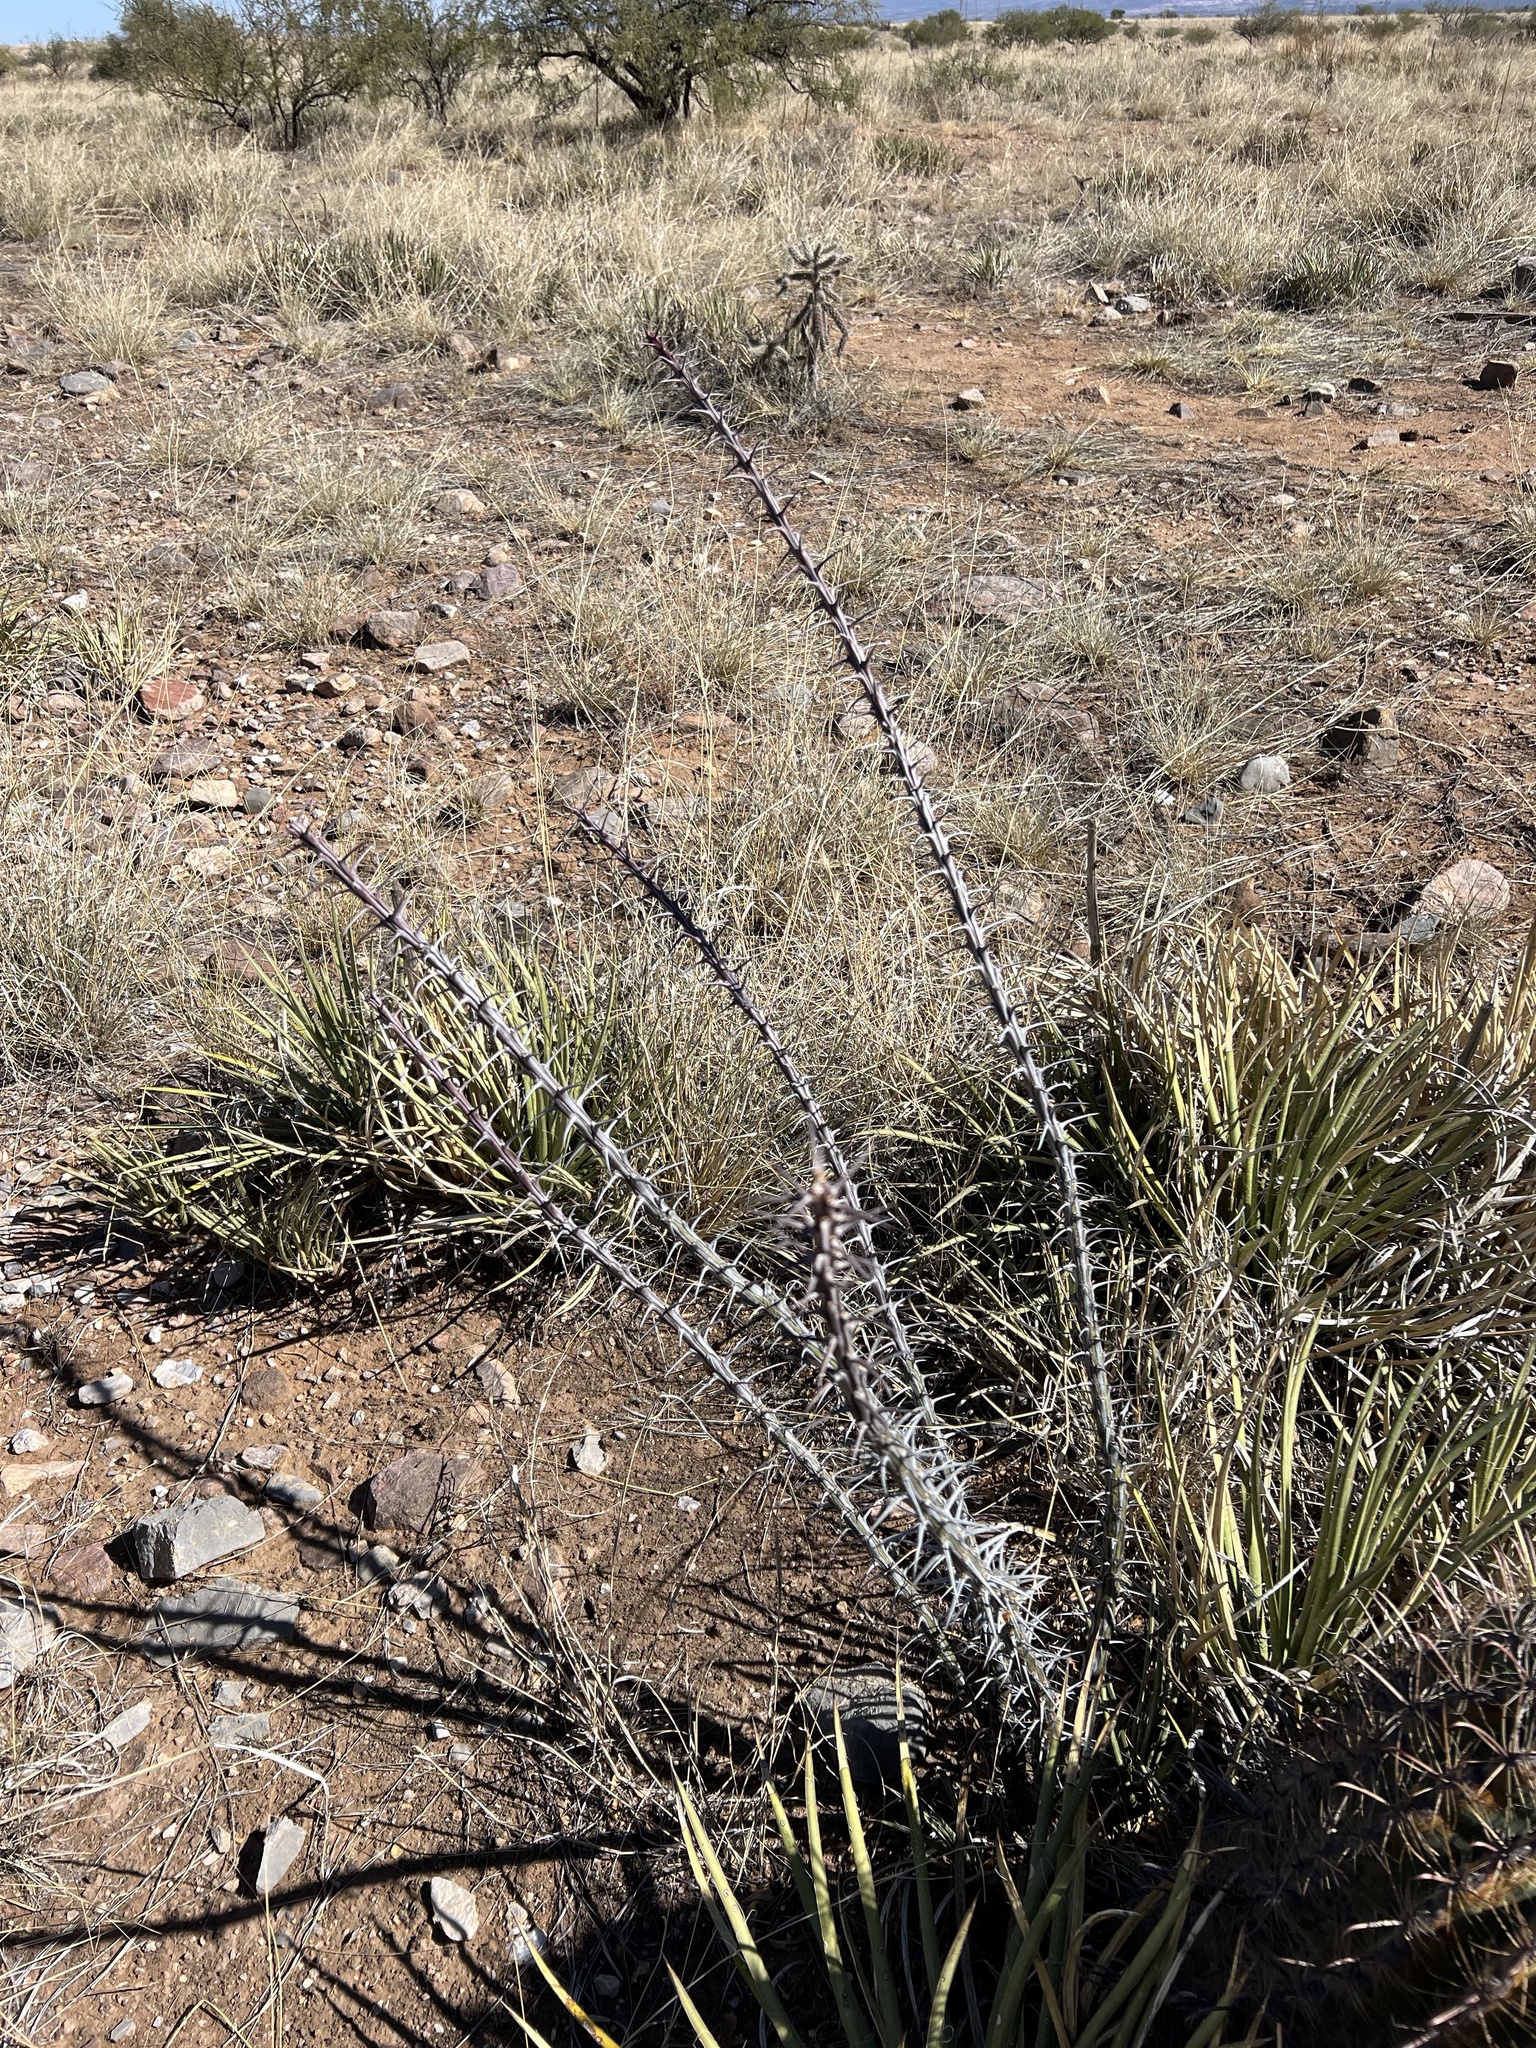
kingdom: Plantae
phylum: Tracheophyta
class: Magnoliopsida
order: Ericales
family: Fouquieriaceae
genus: Fouquieria
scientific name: Fouquieria splendens
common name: Vine-cactus
